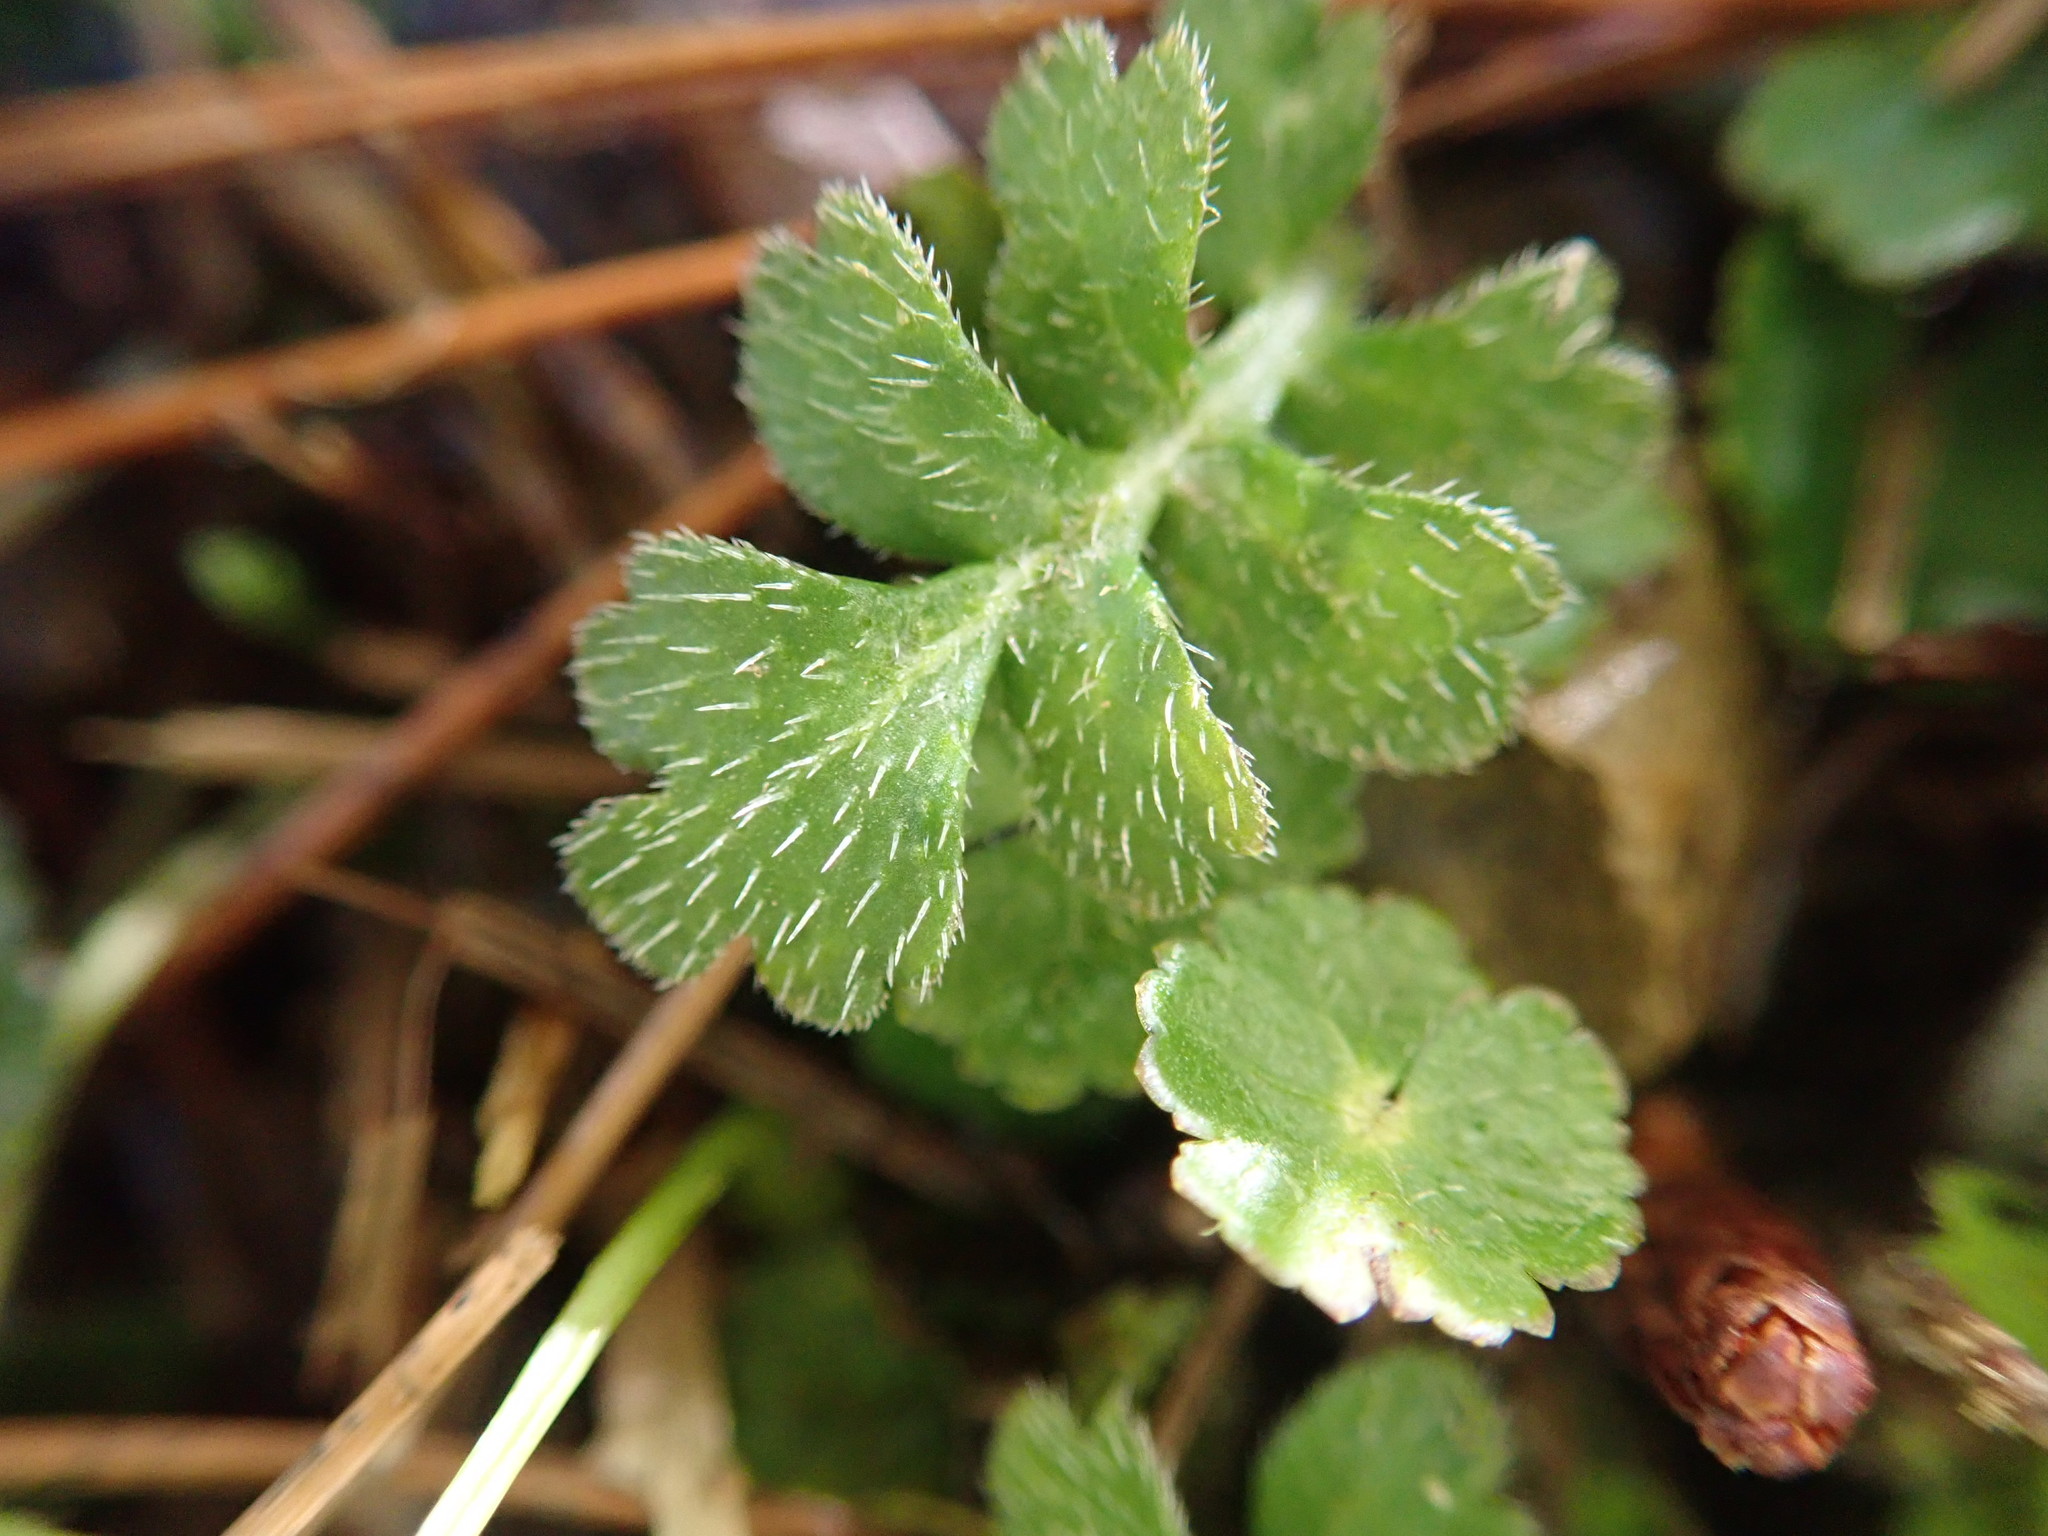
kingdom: Plantae
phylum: Tracheophyta
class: Magnoliopsida
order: Lamiales
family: Plantaginaceae
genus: Ellisiophyllum
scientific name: Ellisiophyllum pinnatum
